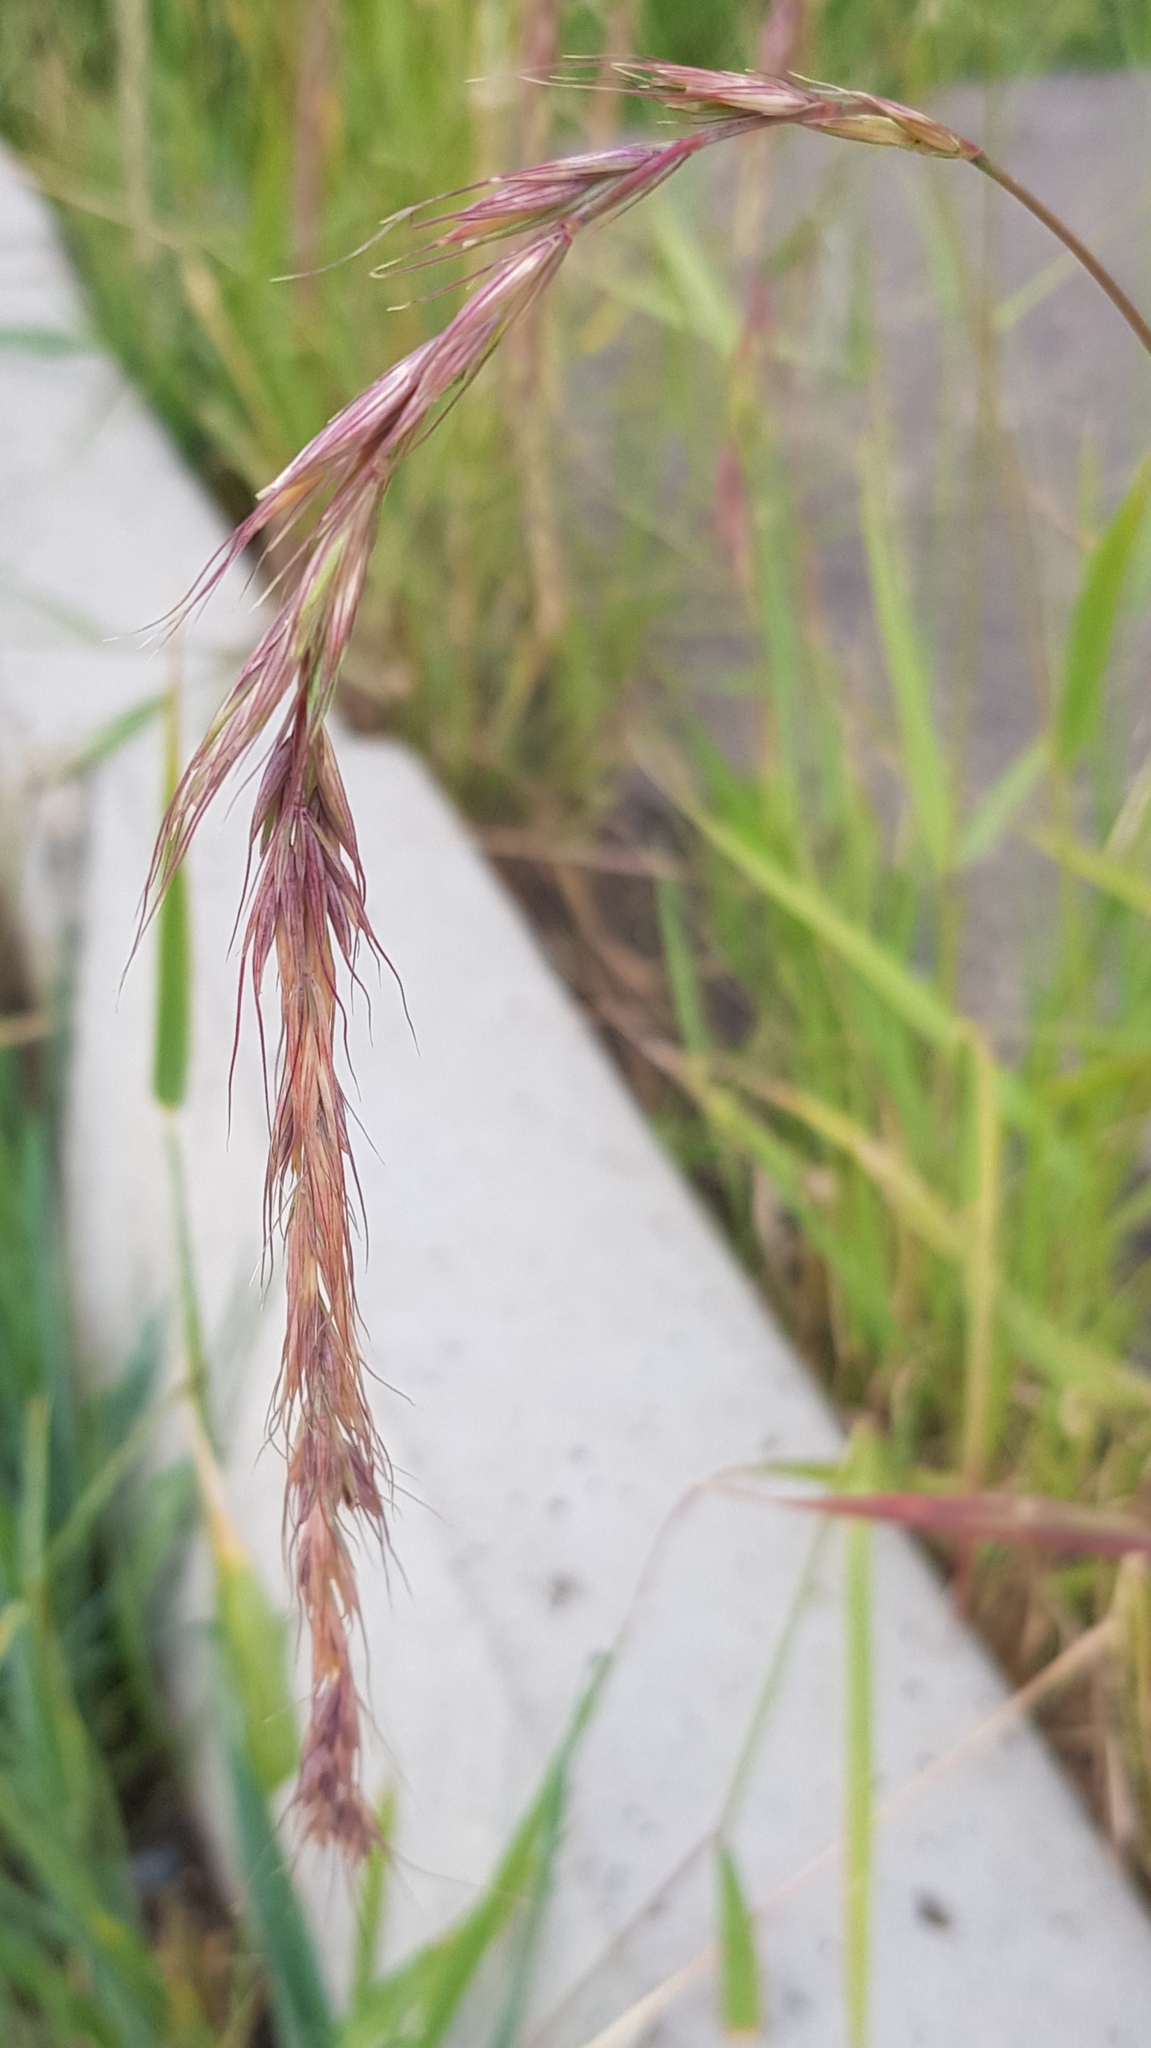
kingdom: Plantae
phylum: Tracheophyta
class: Liliopsida
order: Poales
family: Poaceae
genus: Elymus
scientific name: Elymus sibiricus
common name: Siberian wildrye
